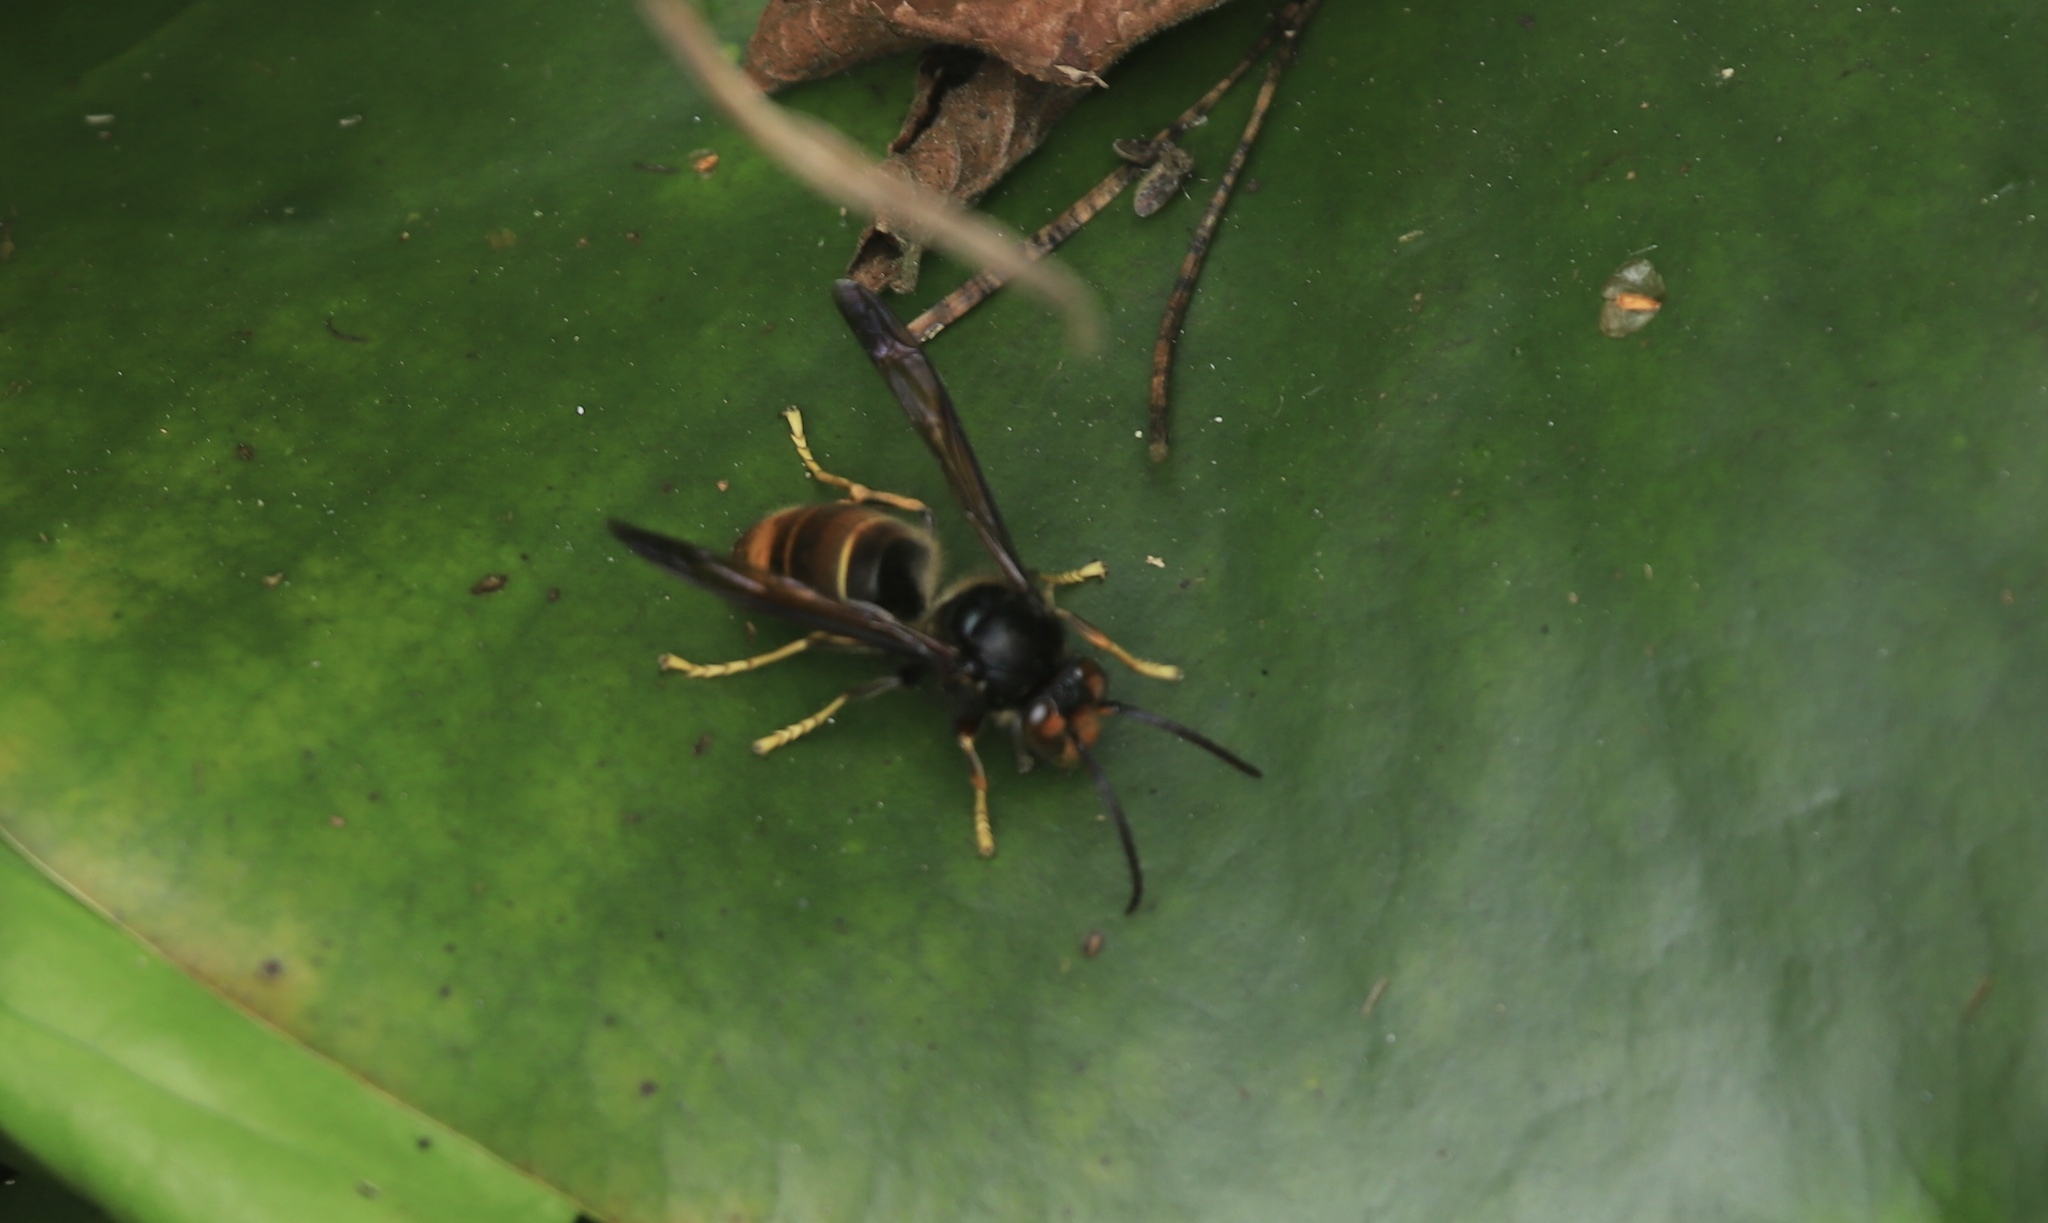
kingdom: Animalia
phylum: Arthropoda
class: Insecta
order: Hymenoptera
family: Vespidae
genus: Vespa
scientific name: Vespa velutina
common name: Asian hornet
